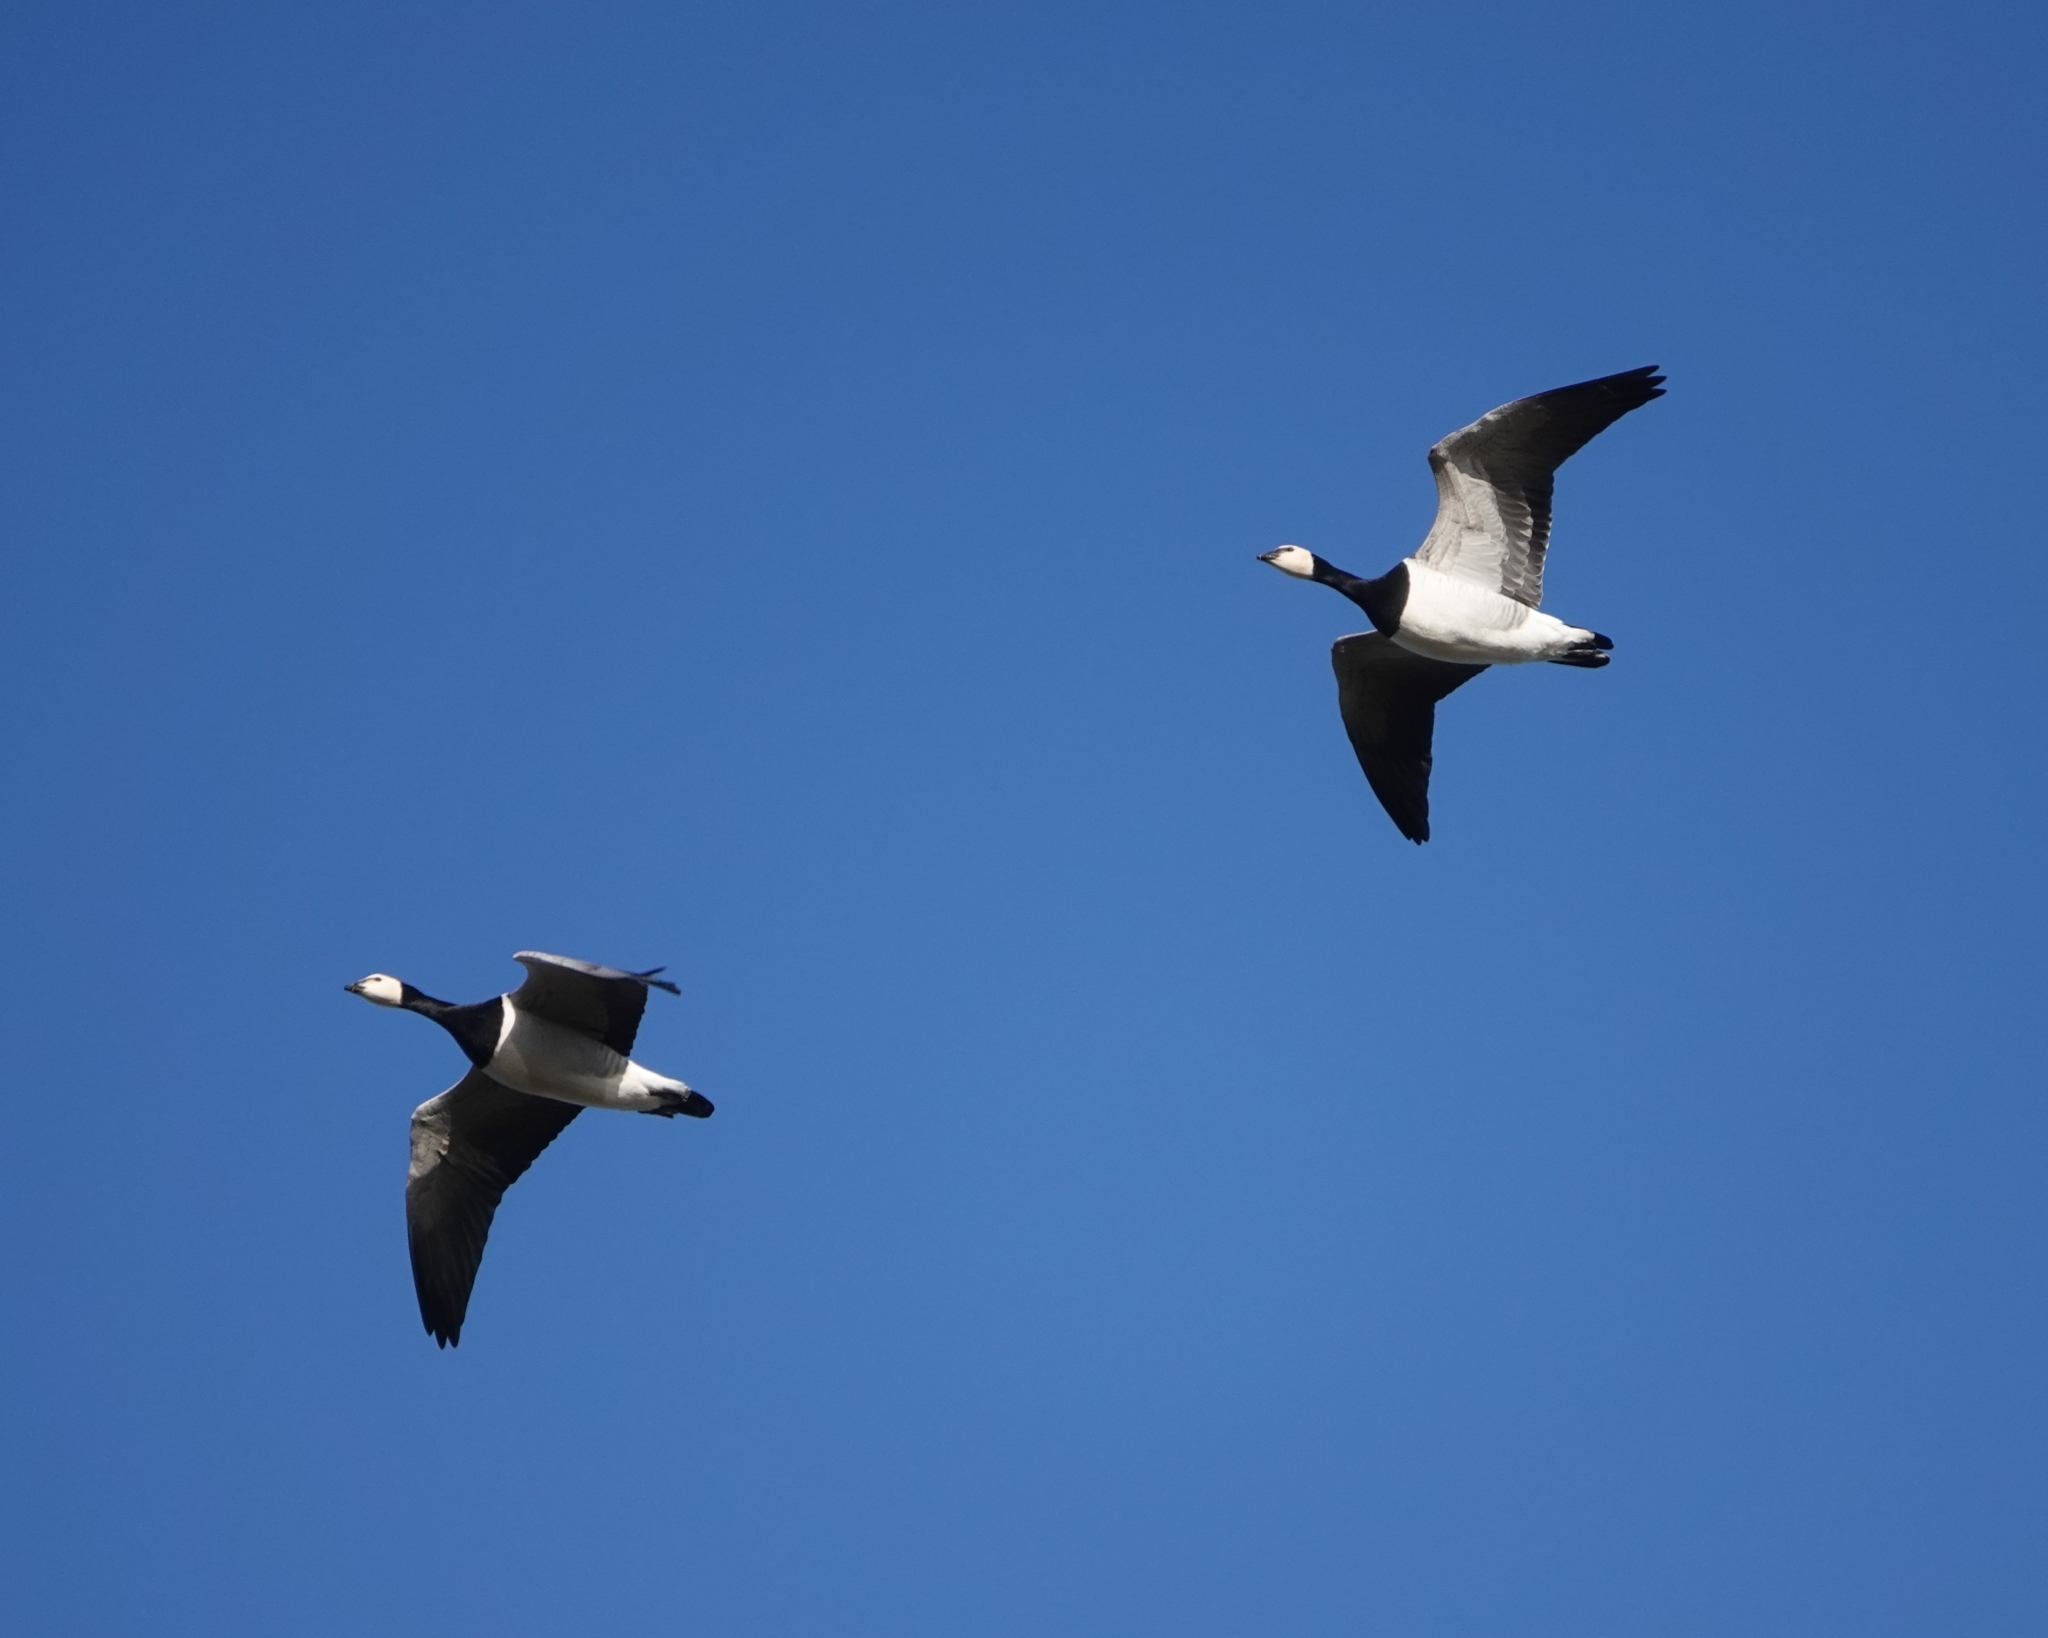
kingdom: Animalia
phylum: Chordata
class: Aves
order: Anseriformes
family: Anatidae
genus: Branta
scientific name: Branta leucopsis
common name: Barnacle goose
